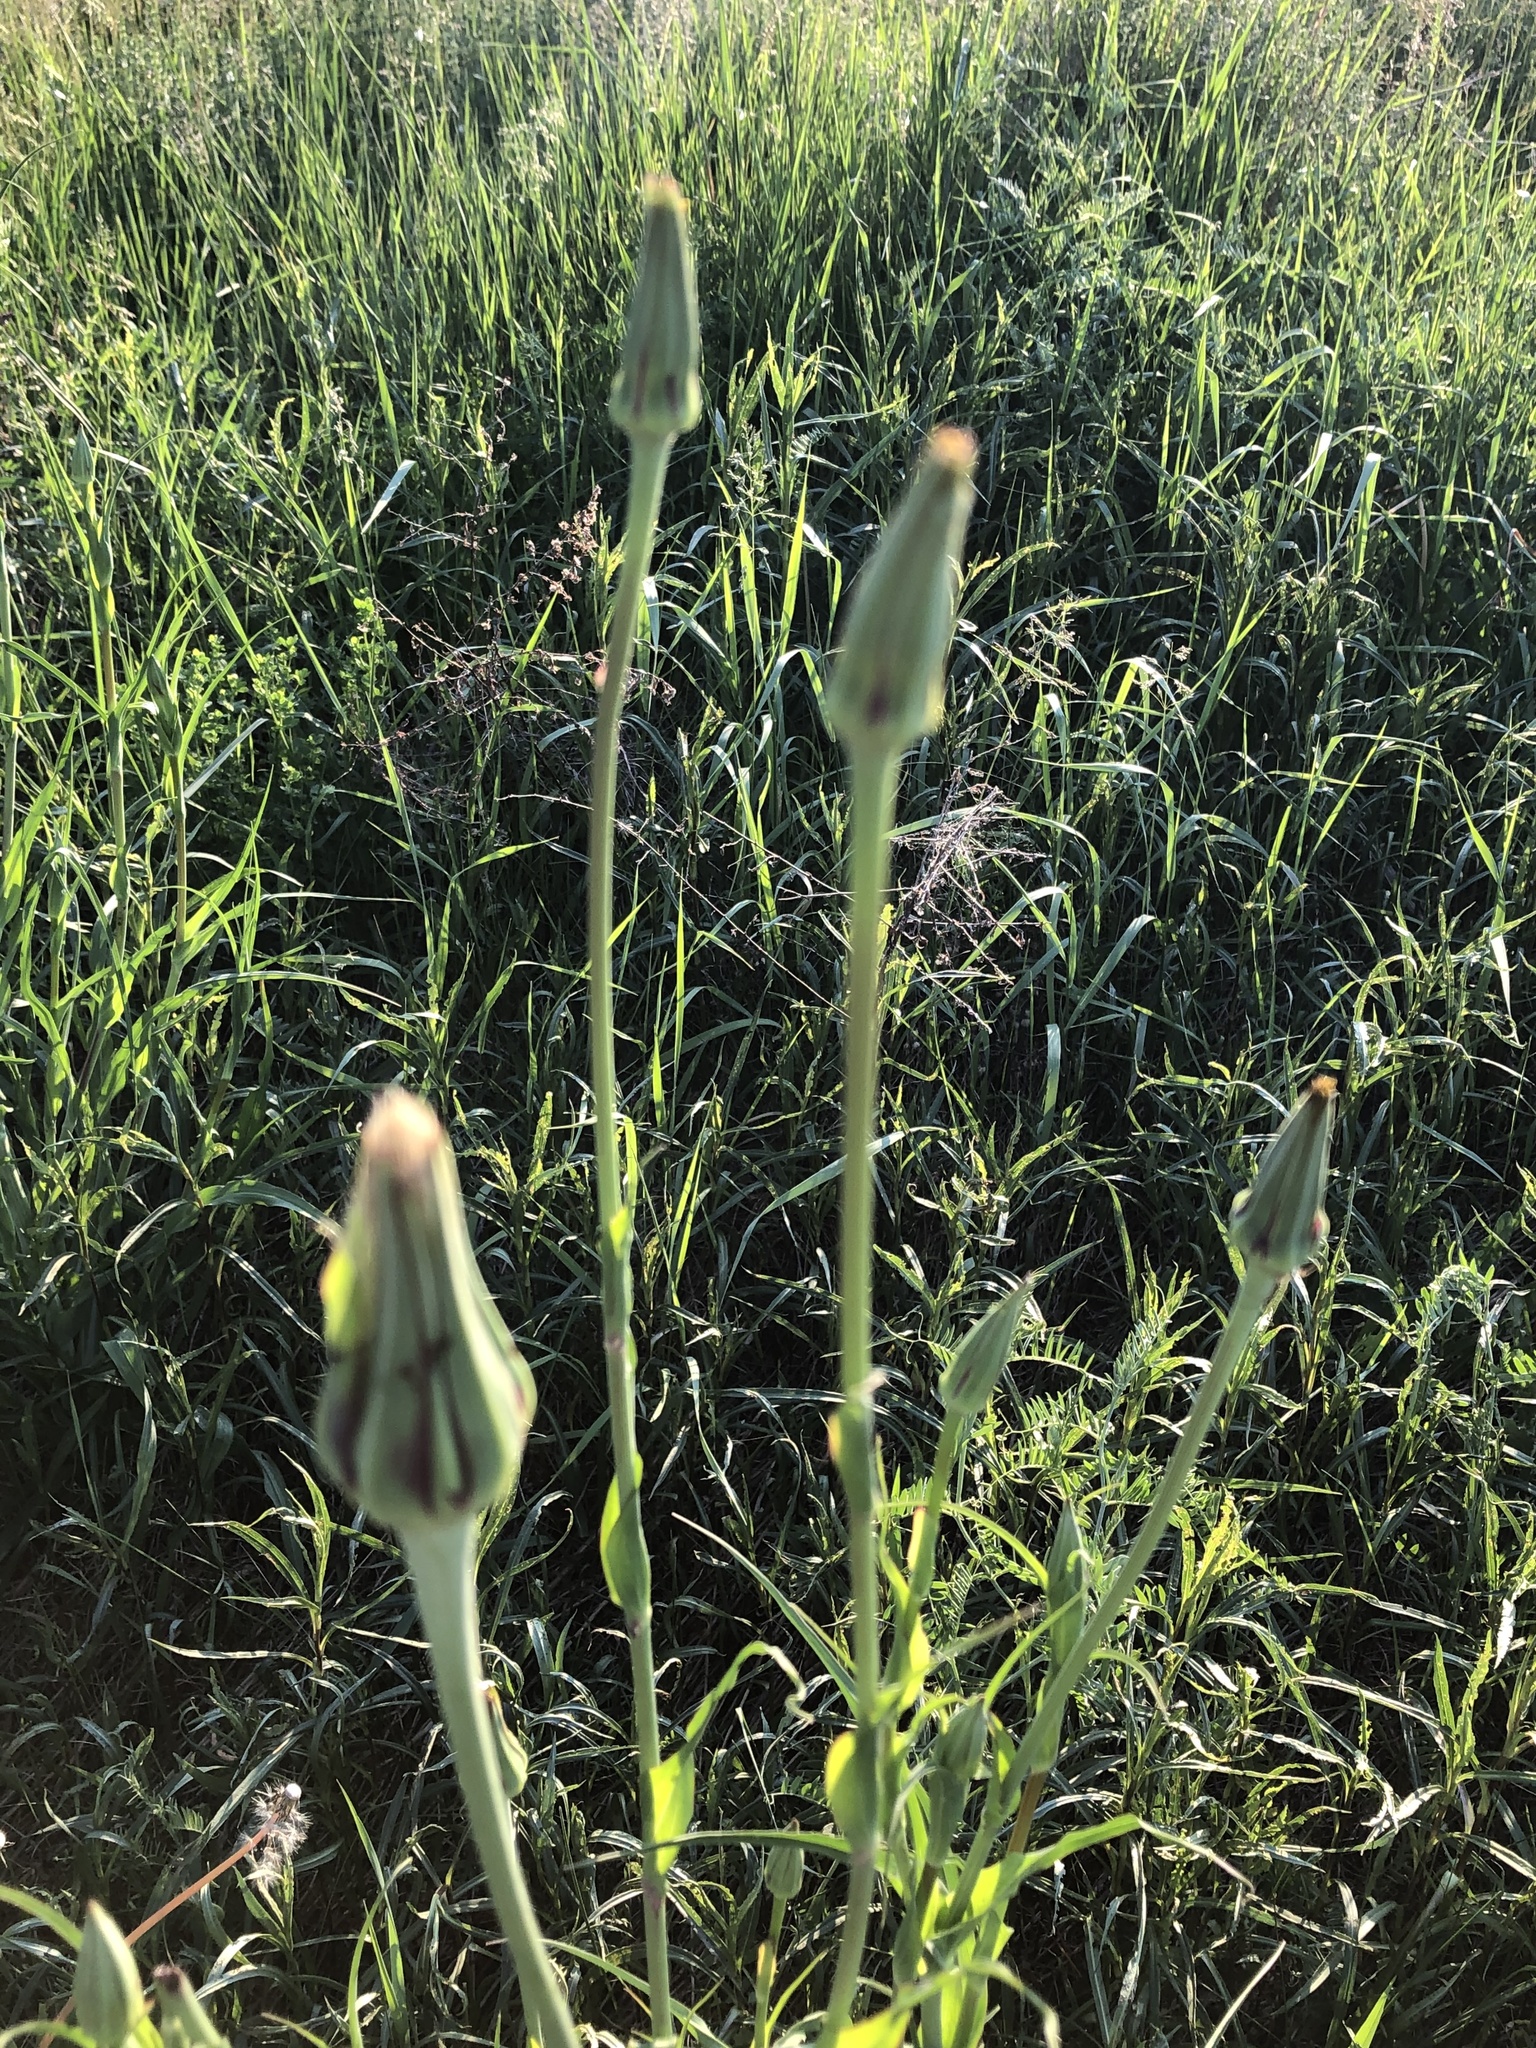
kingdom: Plantae
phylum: Tracheophyta
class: Magnoliopsida
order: Asterales
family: Asteraceae
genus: Tragopogon
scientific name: Tragopogon pratensis
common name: Goat's-beard
